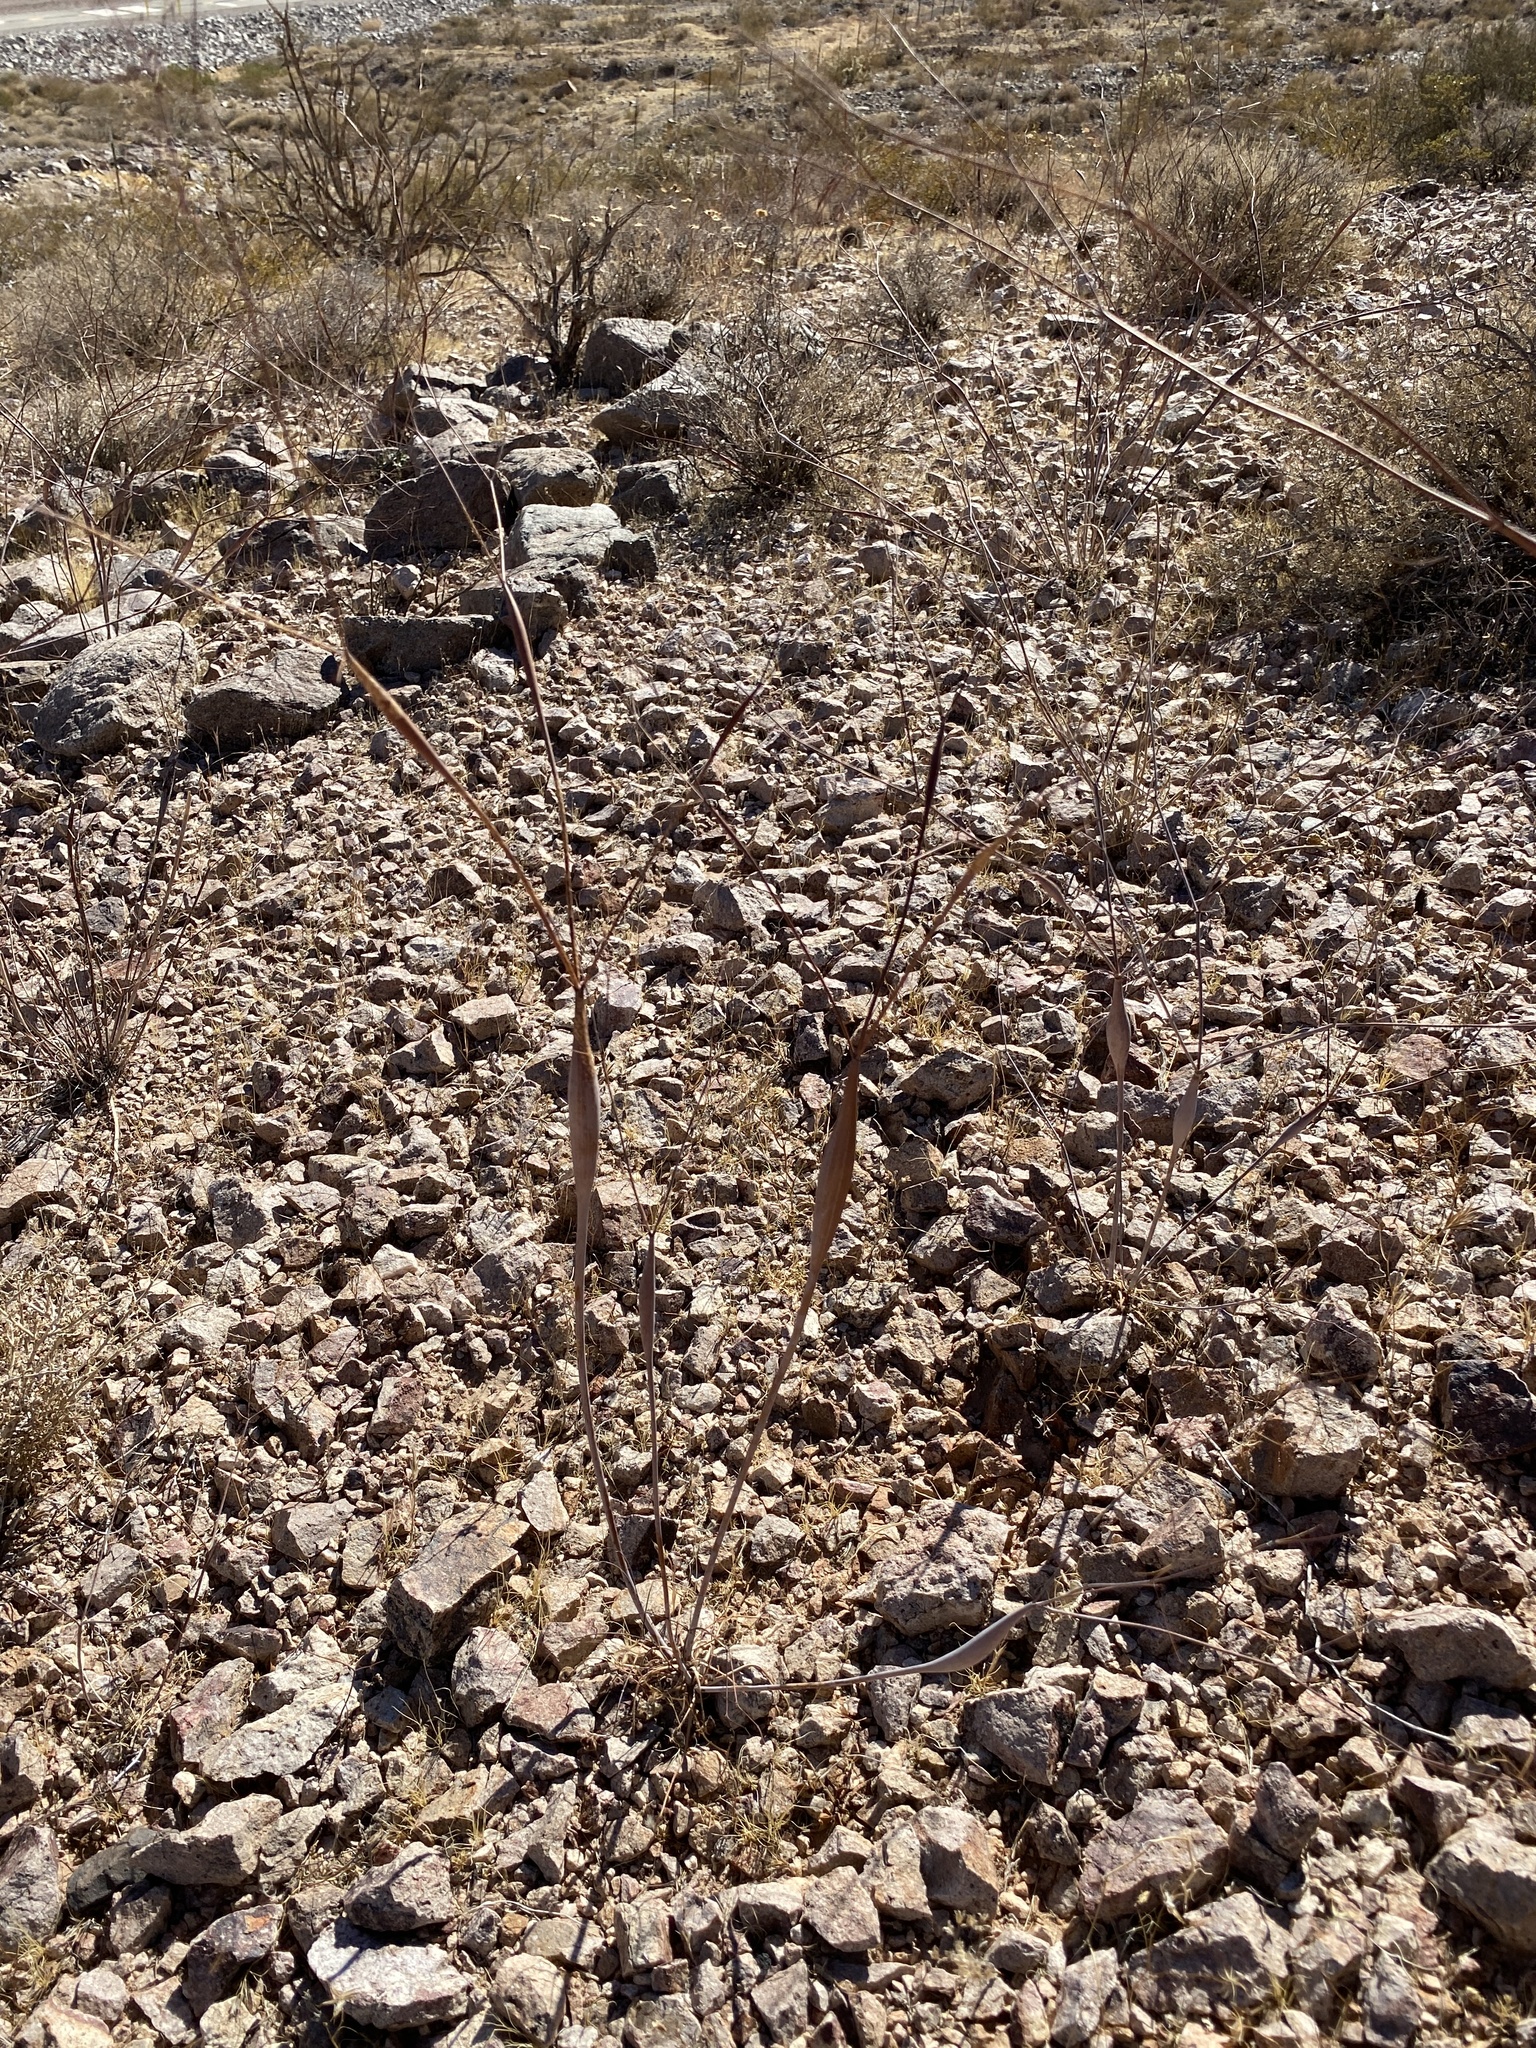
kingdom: Plantae
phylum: Tracheophyta
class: Magnoliopsida
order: Caryophyllales
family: Polygonaceae
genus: Eriogonum
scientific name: Eriogonum inflatum
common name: Desert trumpet
